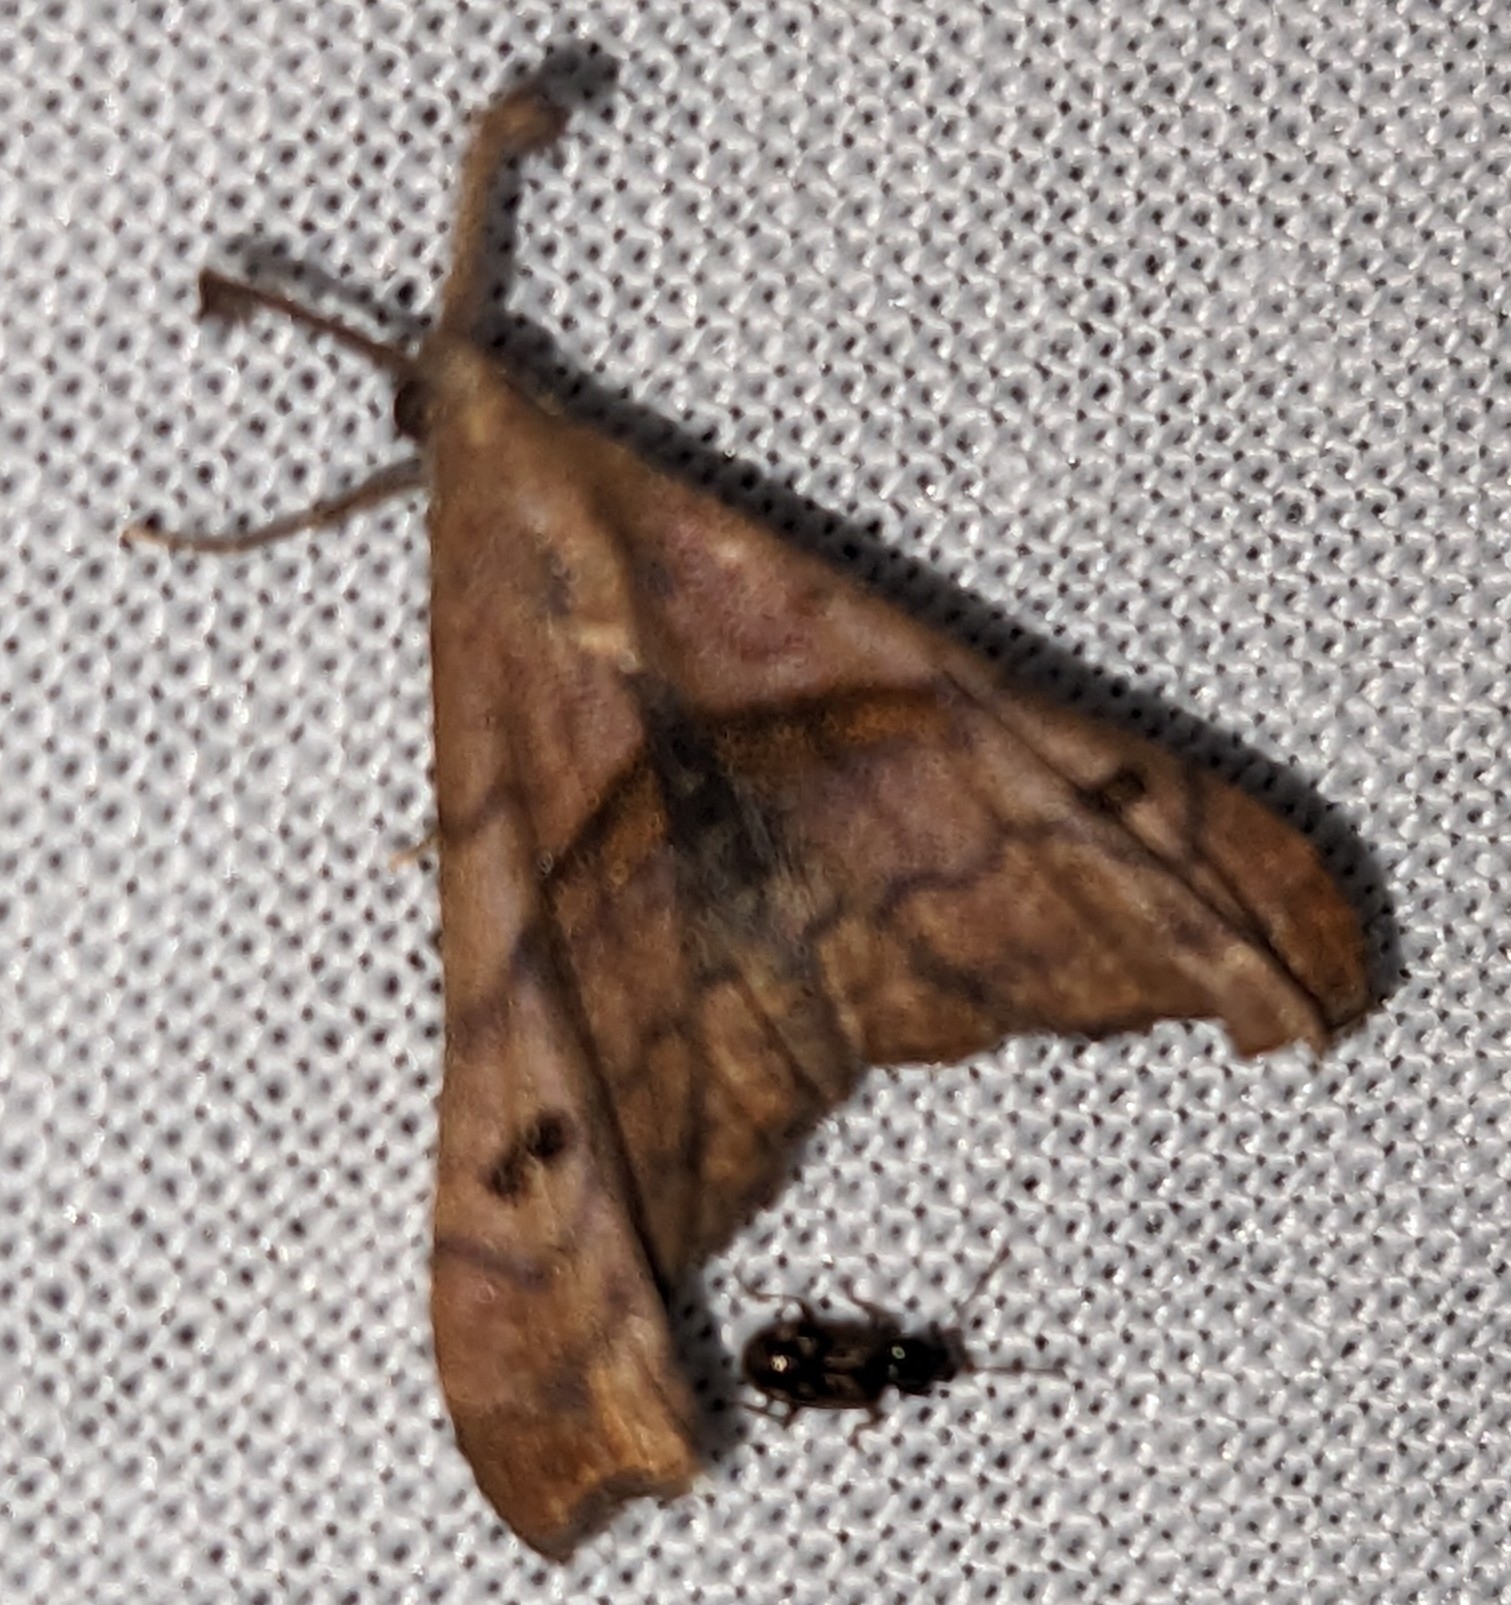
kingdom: Animalia
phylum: Arthropoda
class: Insecta
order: Lepidoptera
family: Erebidae
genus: Palthis
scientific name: Palthis angulalis
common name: Dark-spotted palthis moth
